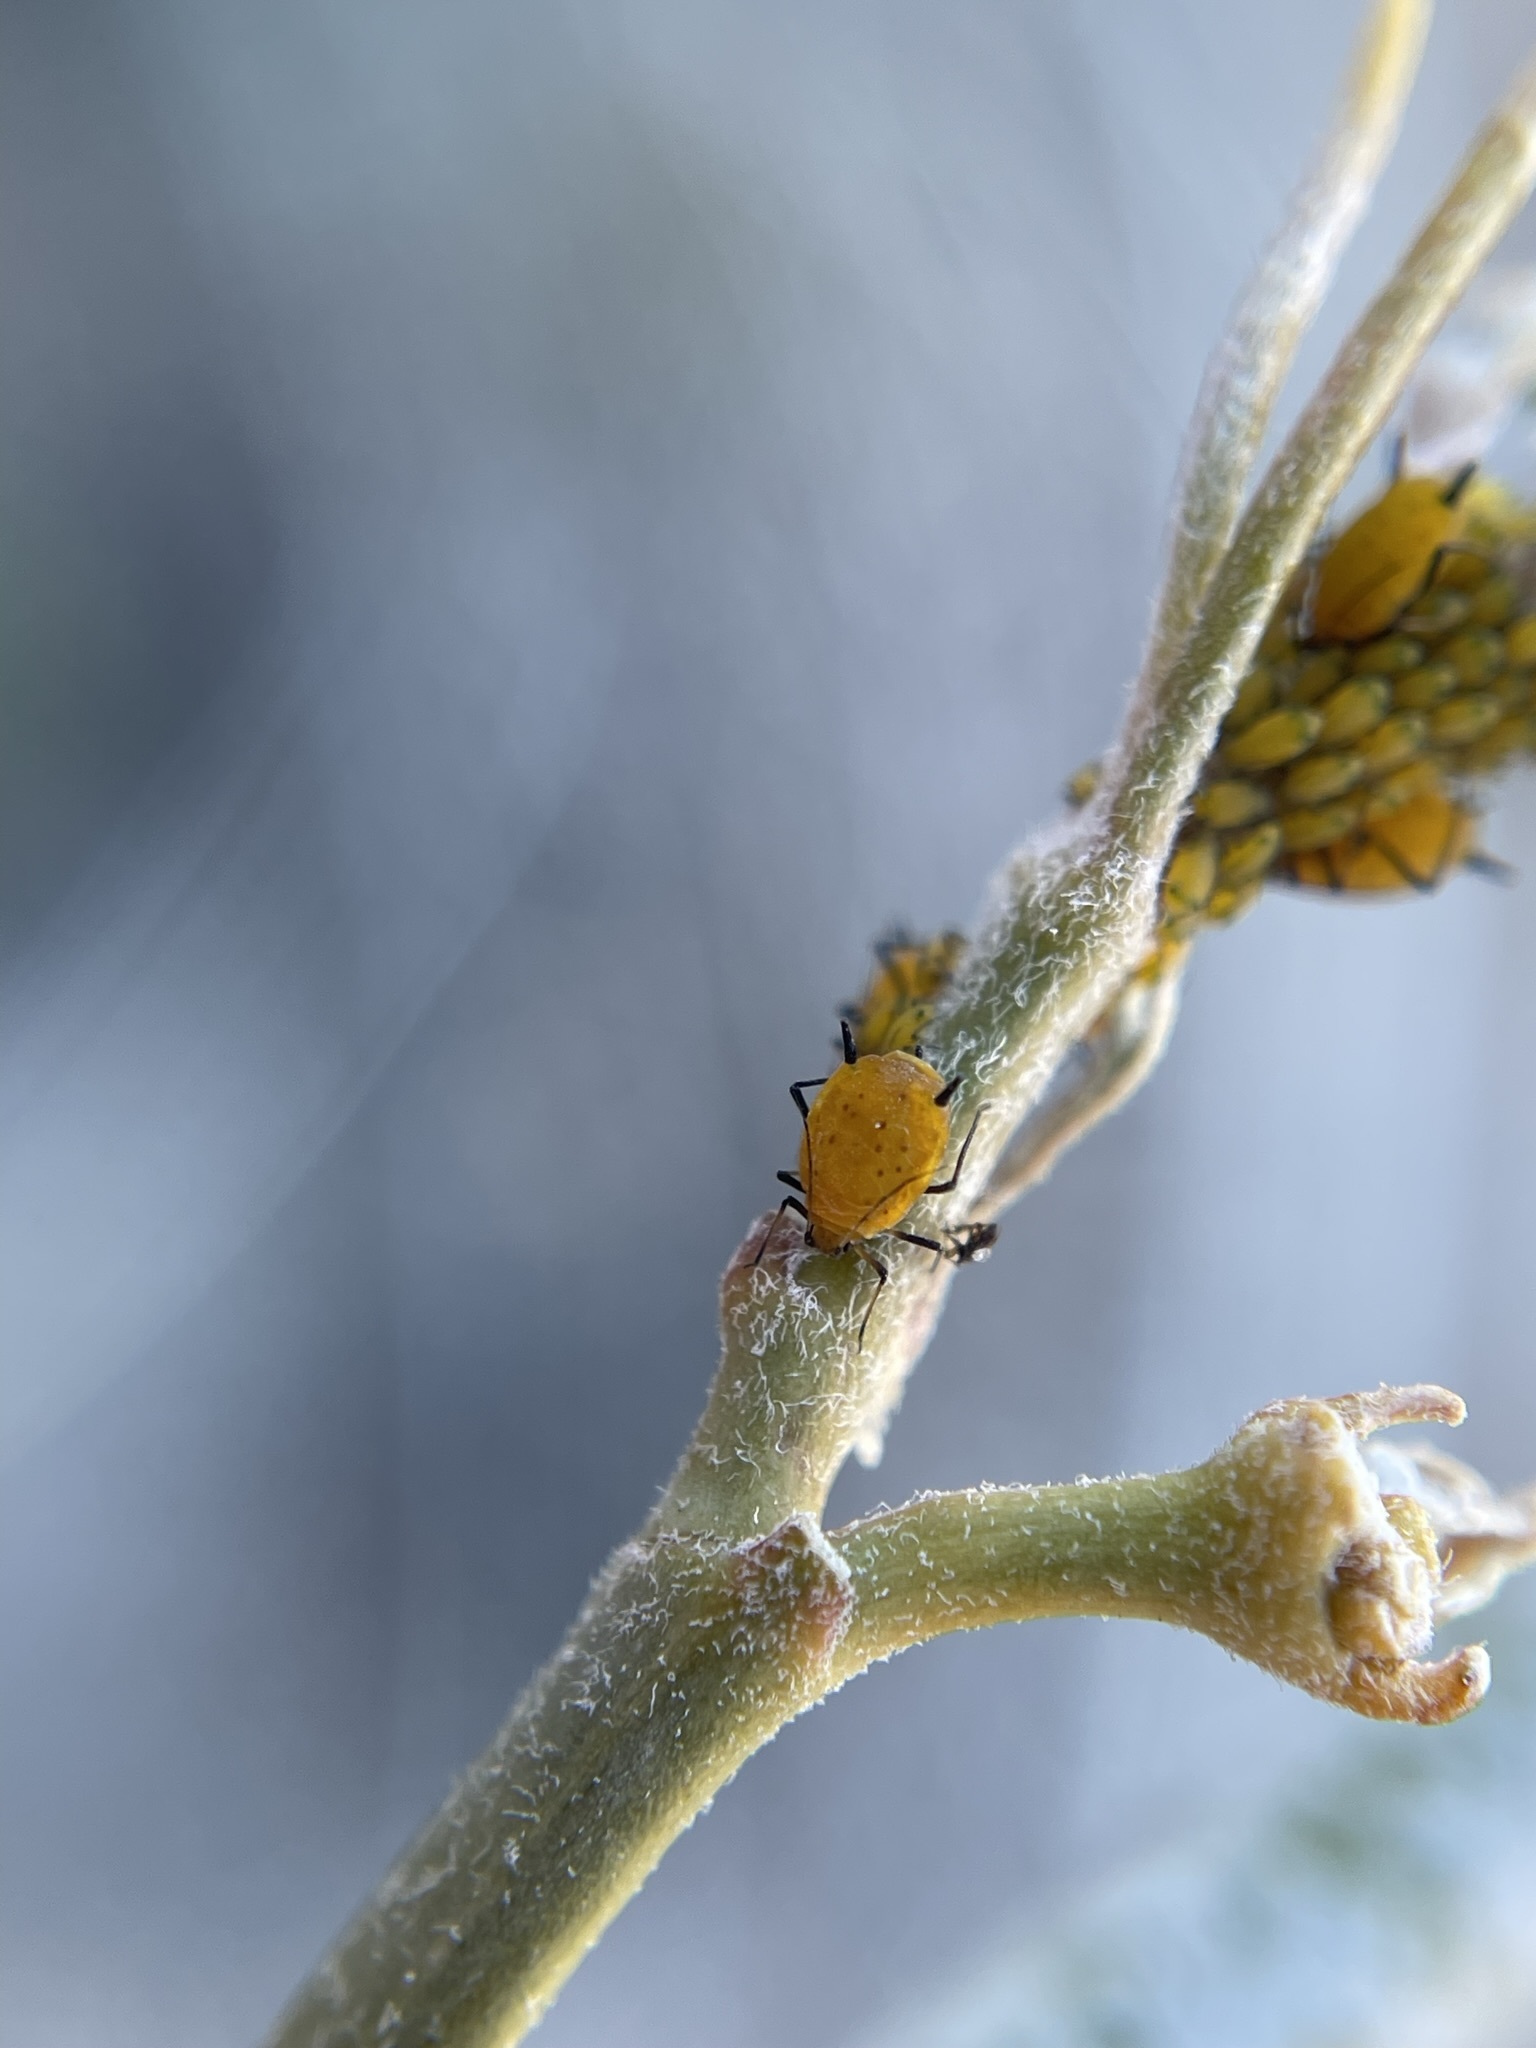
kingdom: Animalia
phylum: Arthropoda
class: Insecta
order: Hemiptera
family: Aphididae
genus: Aphis
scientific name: Aphis nerii
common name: Oleander aphid
